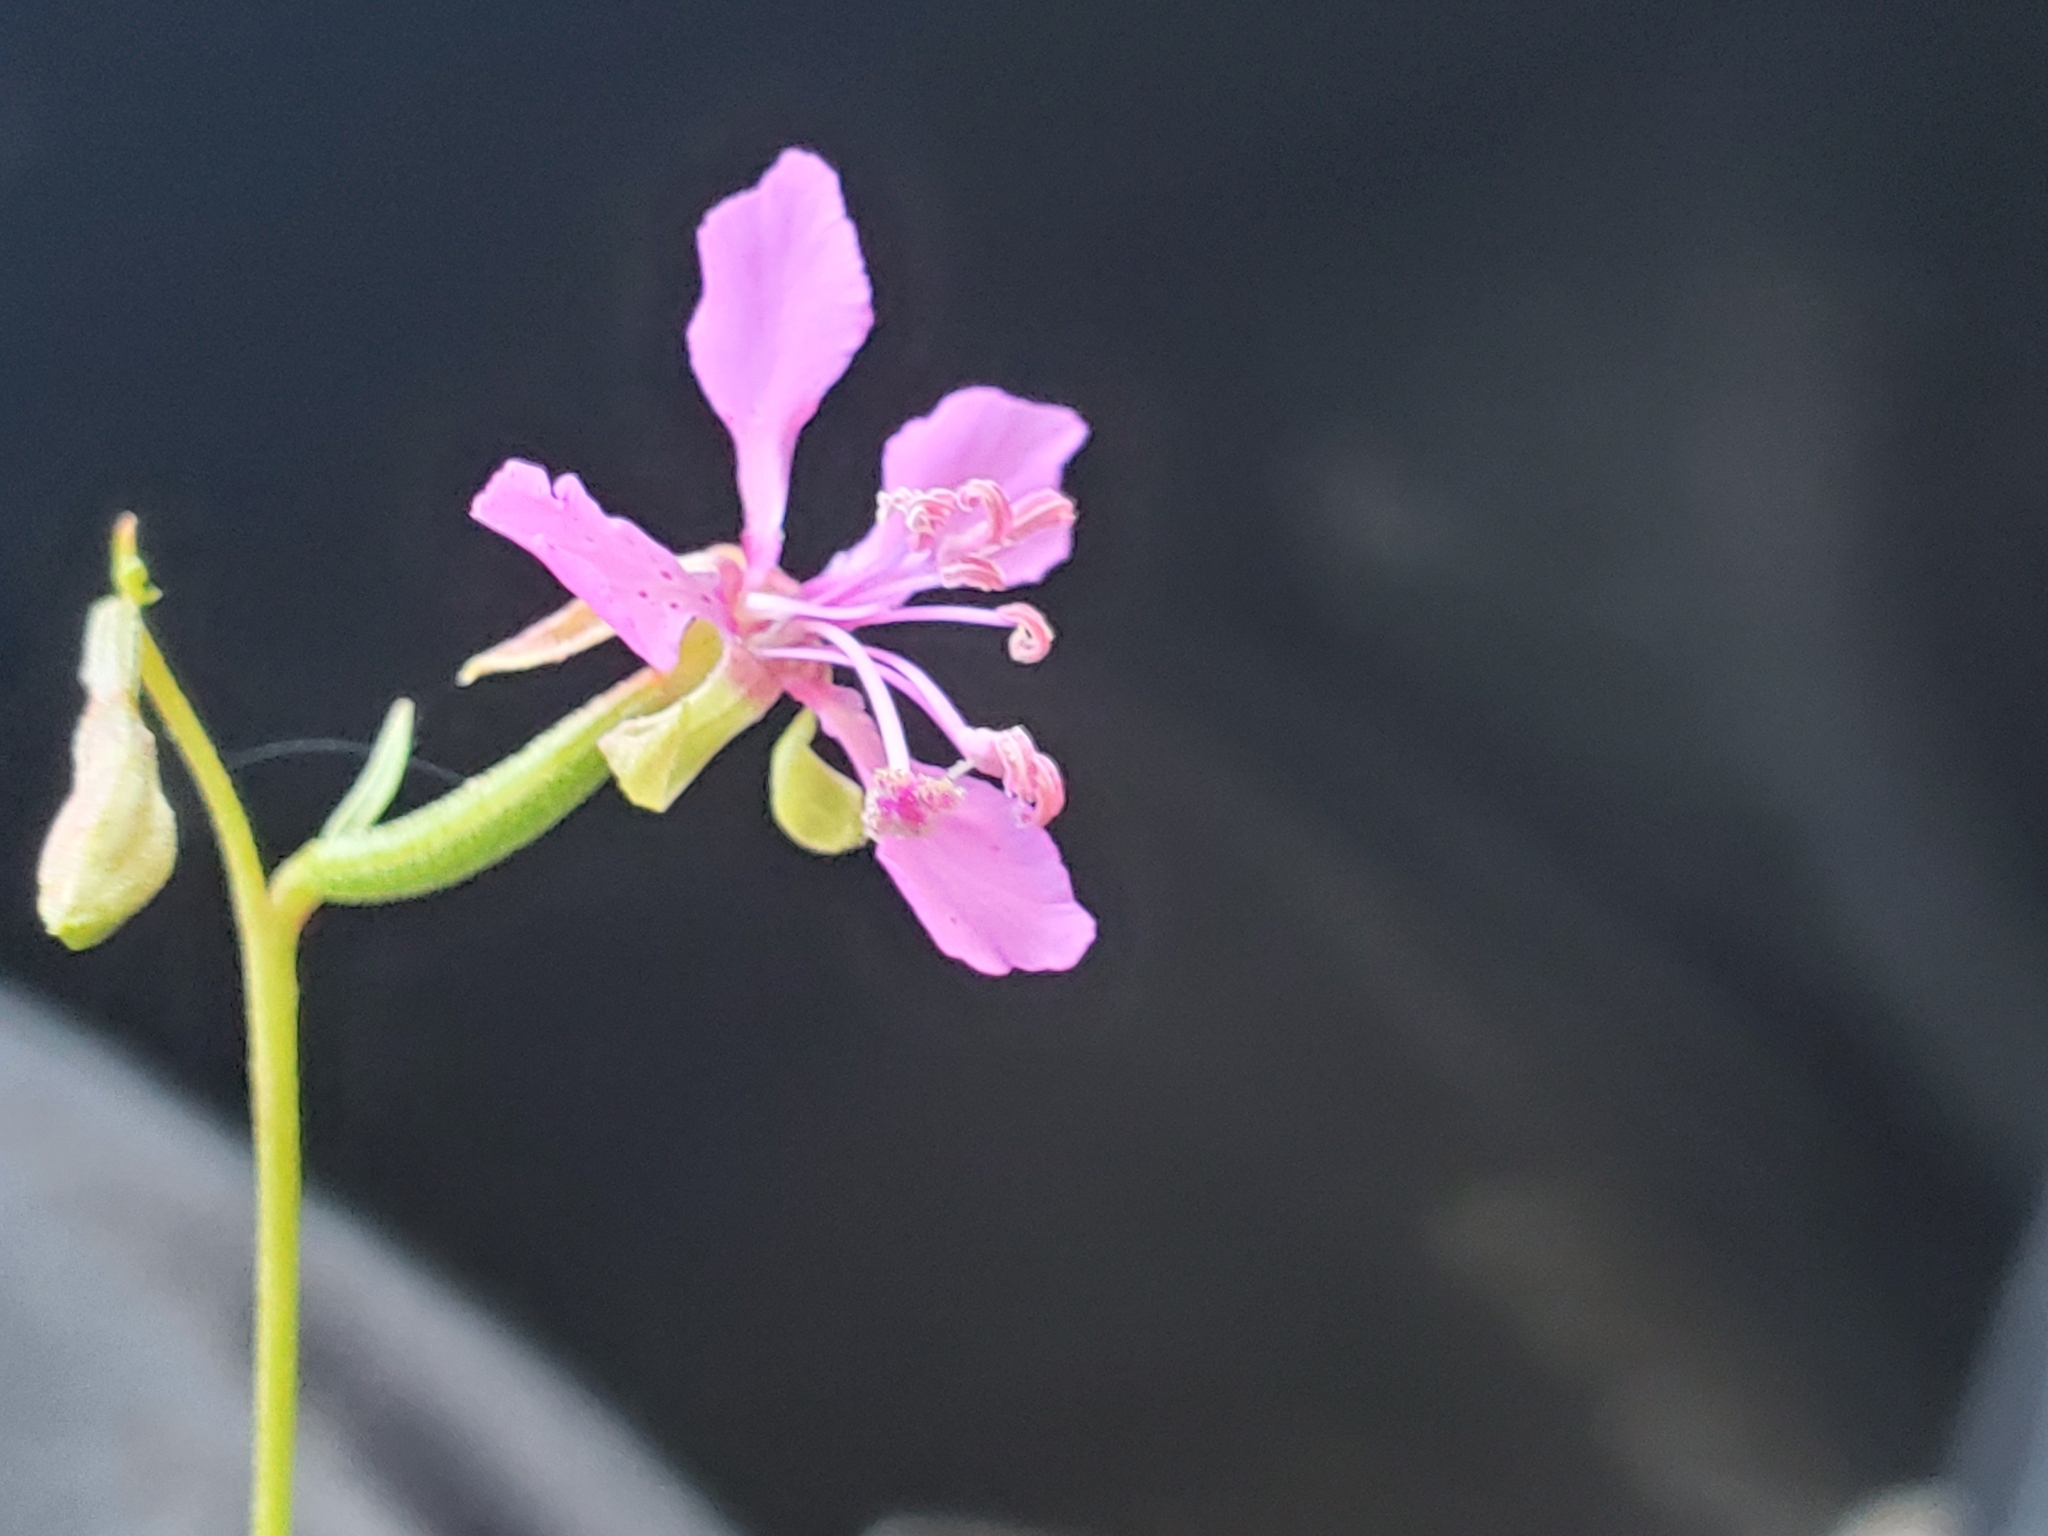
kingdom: Plantae
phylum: Tracheophyta
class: Magnoliopsida
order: Myrtales
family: Onagraceae
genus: Clarkia
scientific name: Clarkia rhomboidea
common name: Broadleaf clarkia
